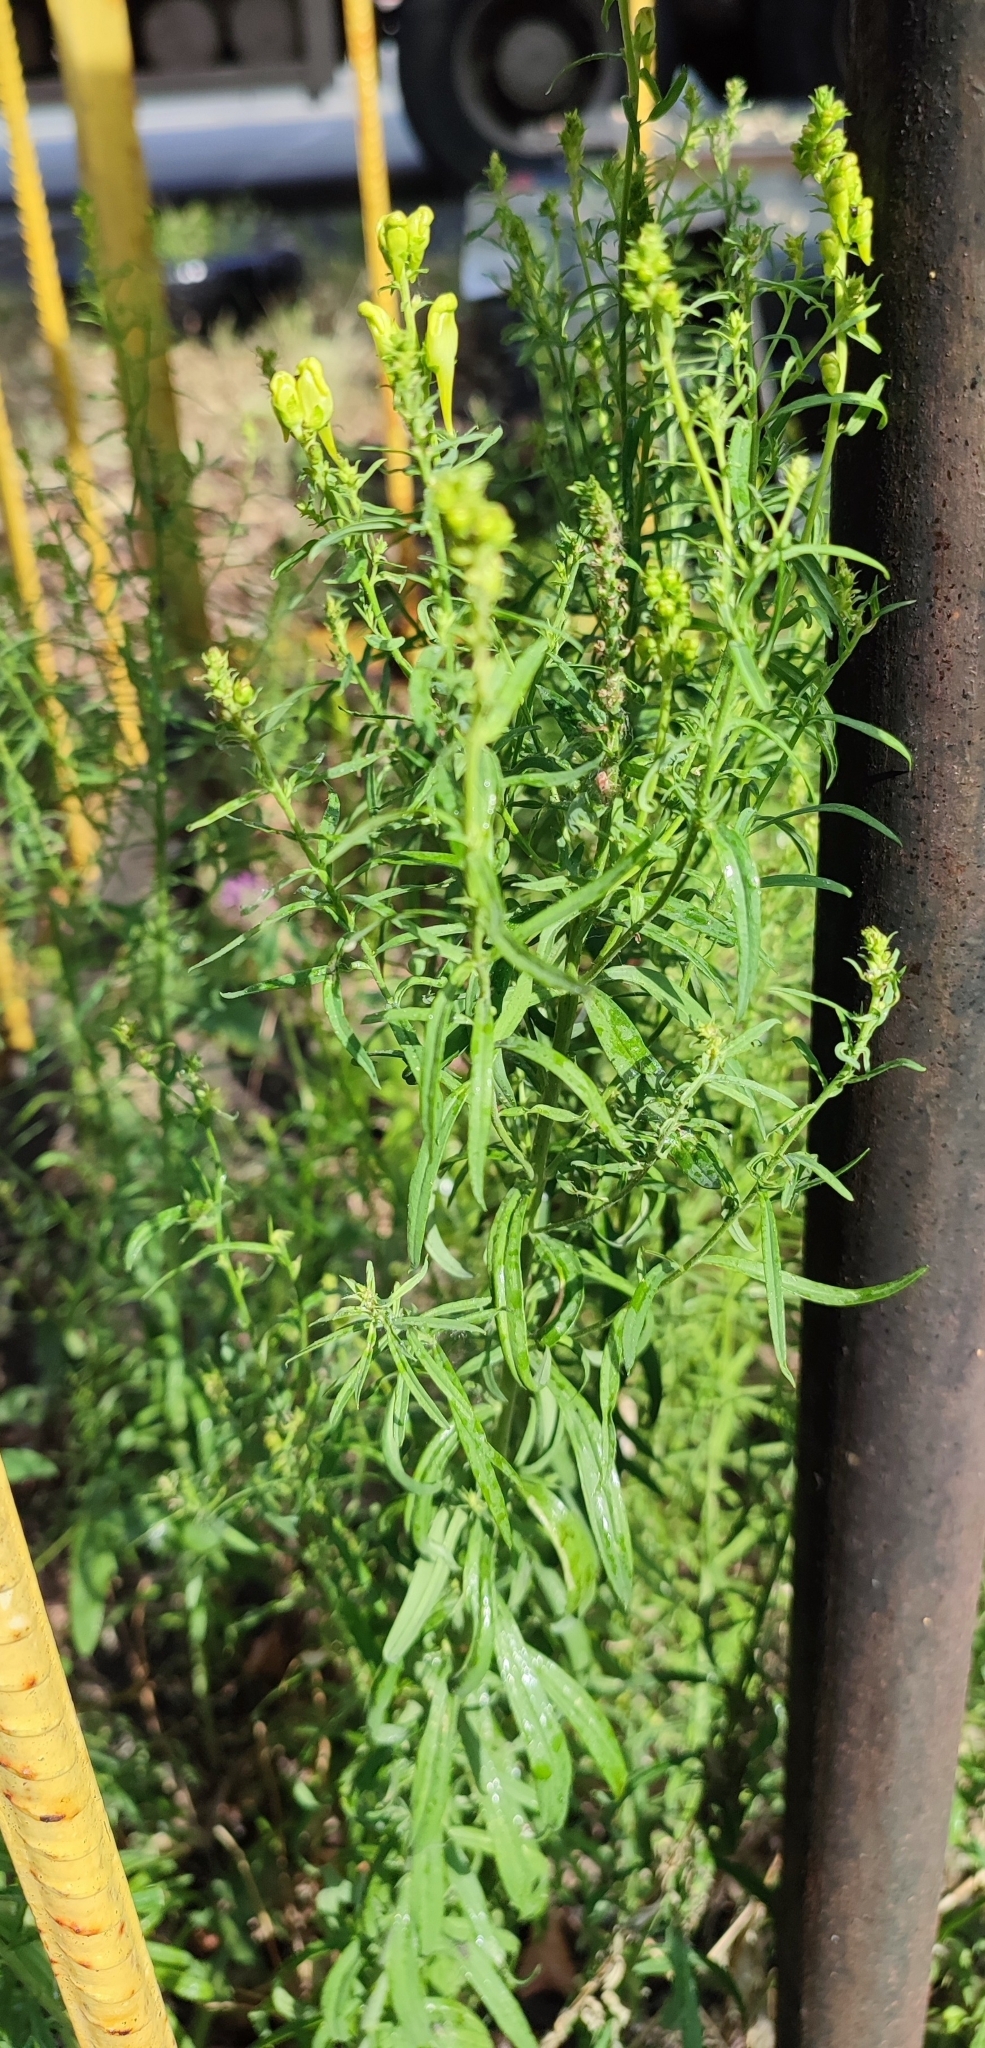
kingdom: Plantae
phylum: Tracheophyta
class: Magnoliopsida
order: Lamiales
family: Plantaginaceae
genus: Linaria
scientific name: Linaria vulgaris
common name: Butter and eggs
